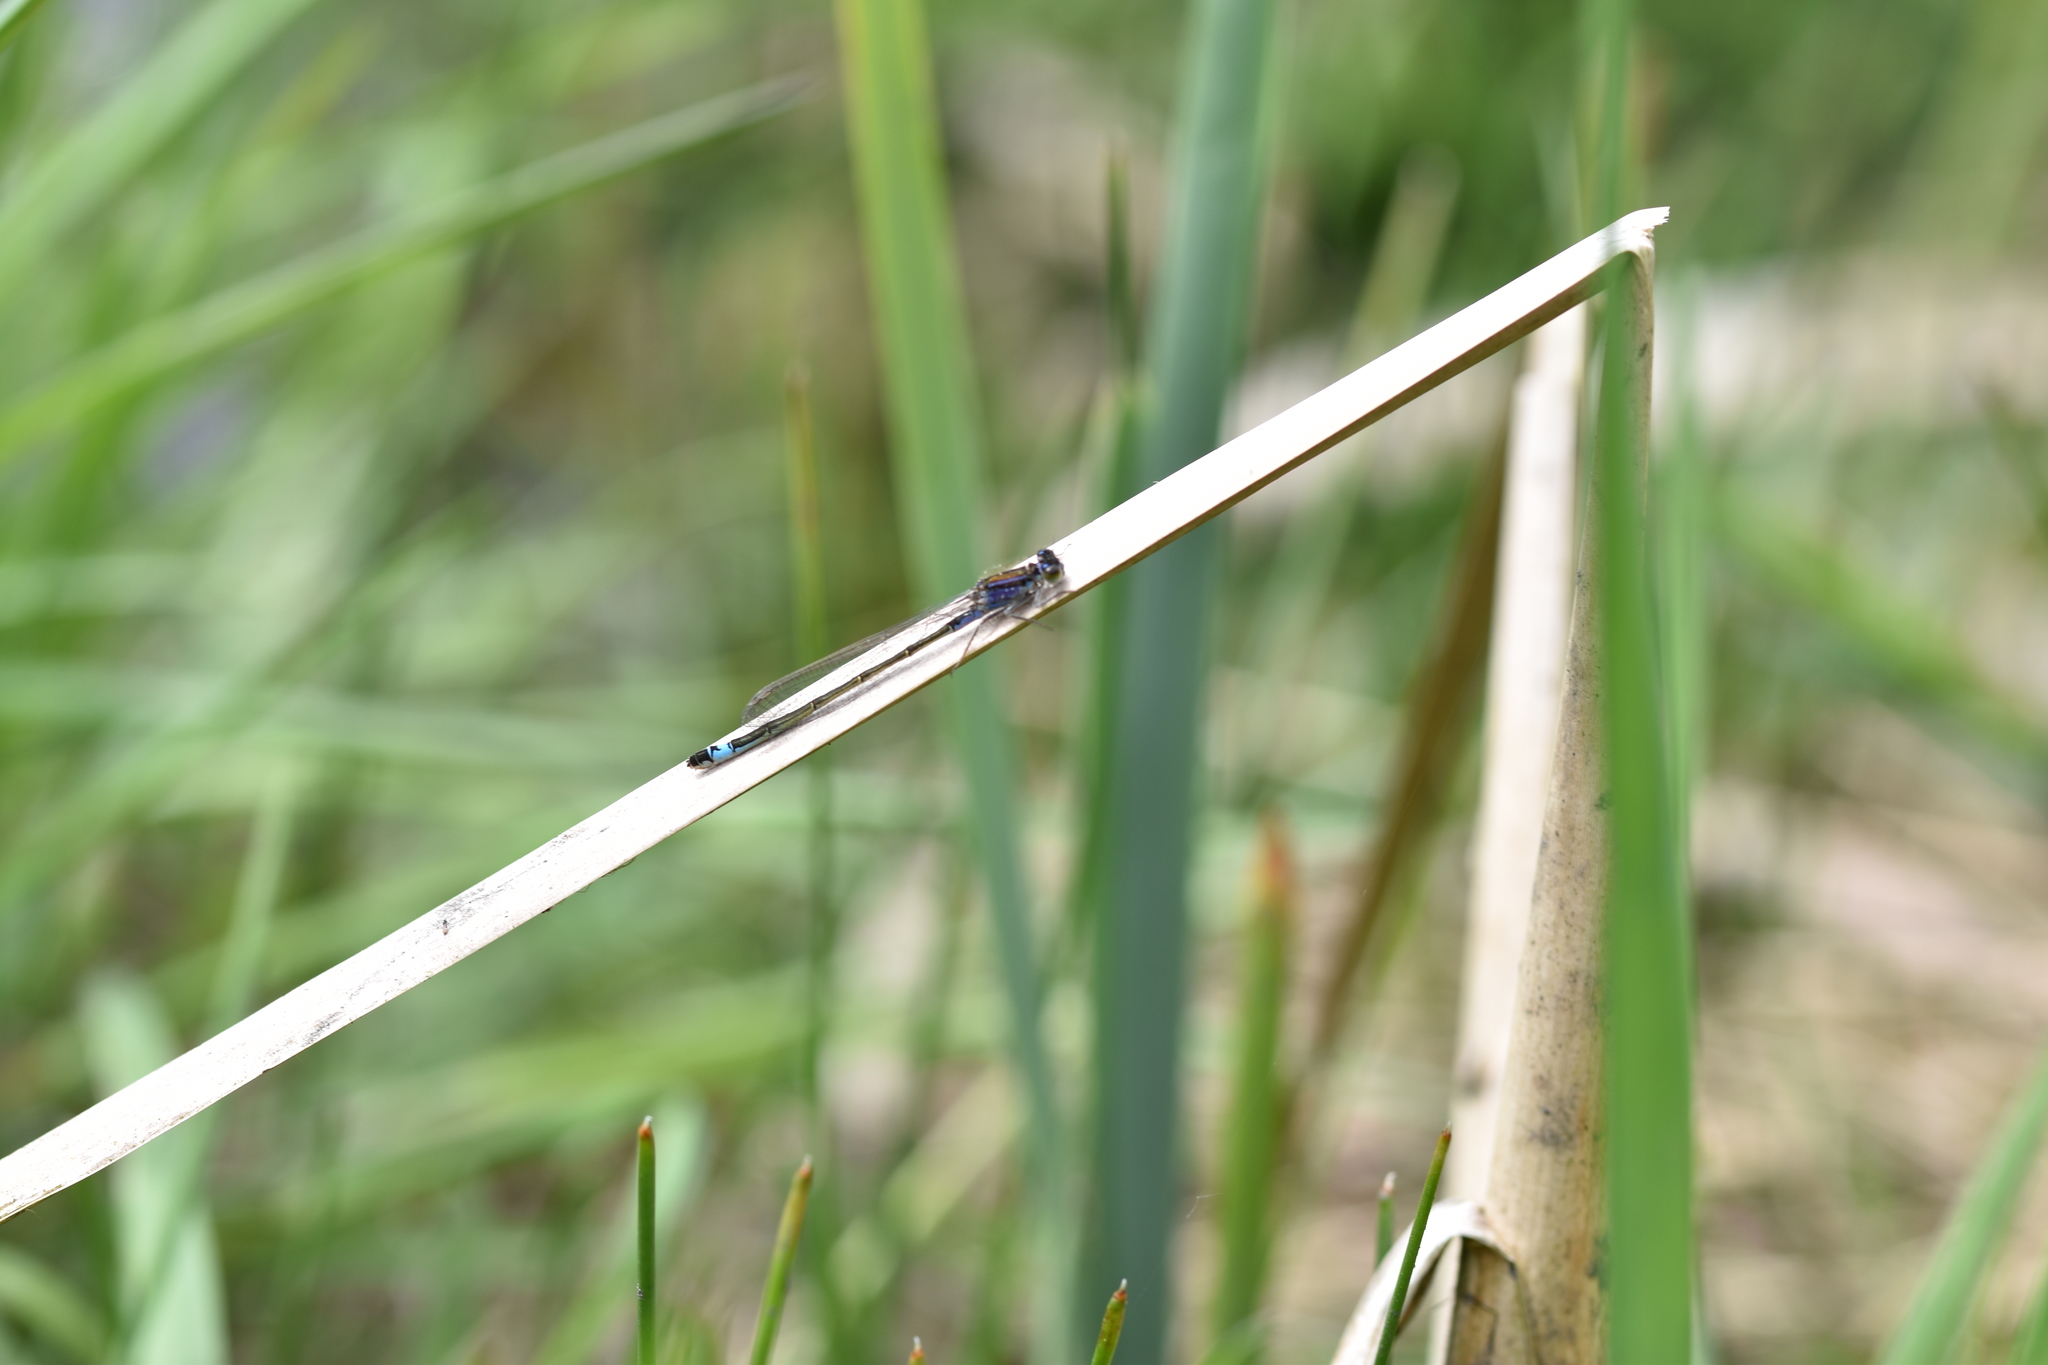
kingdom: Animalia
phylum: Arthropoda
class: Insecta
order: Odonata
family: Coenagrionidae
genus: Ischnura
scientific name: Ischnura elegans
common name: Blue-tailed damselfly
